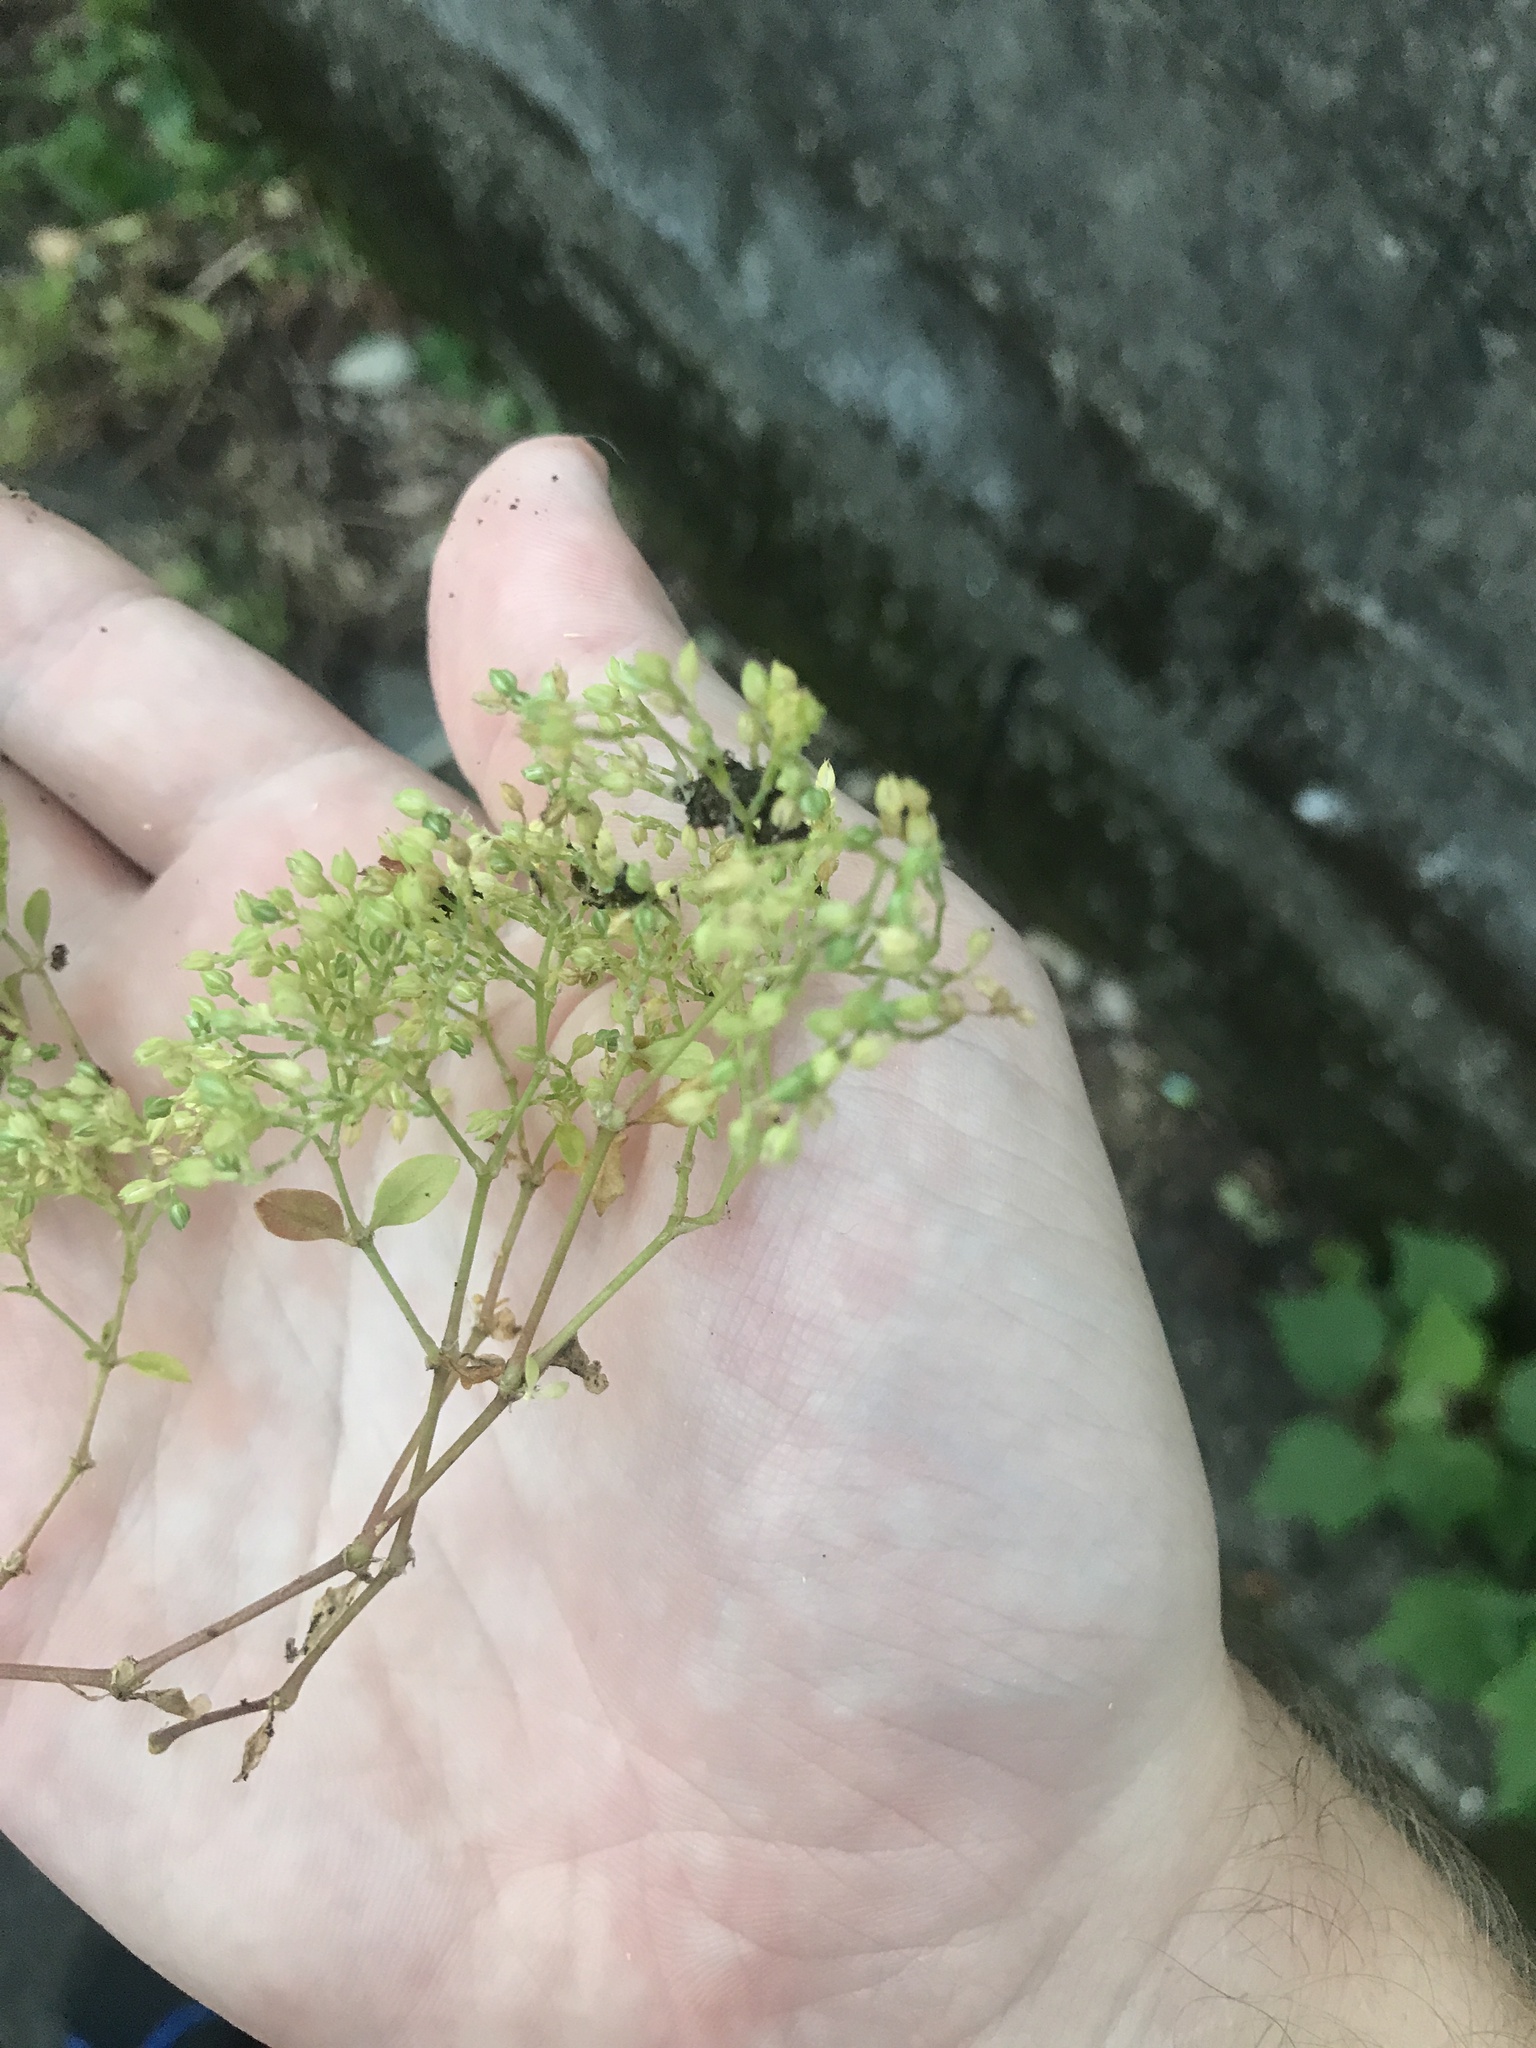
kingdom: Plantae
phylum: Tracheophyta
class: Magnoliopsida
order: Caryophyllales
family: Caryophyllaceae
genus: Polycarpon
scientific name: Polycarpon tetraphyllum
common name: Four-leaved all-seed
